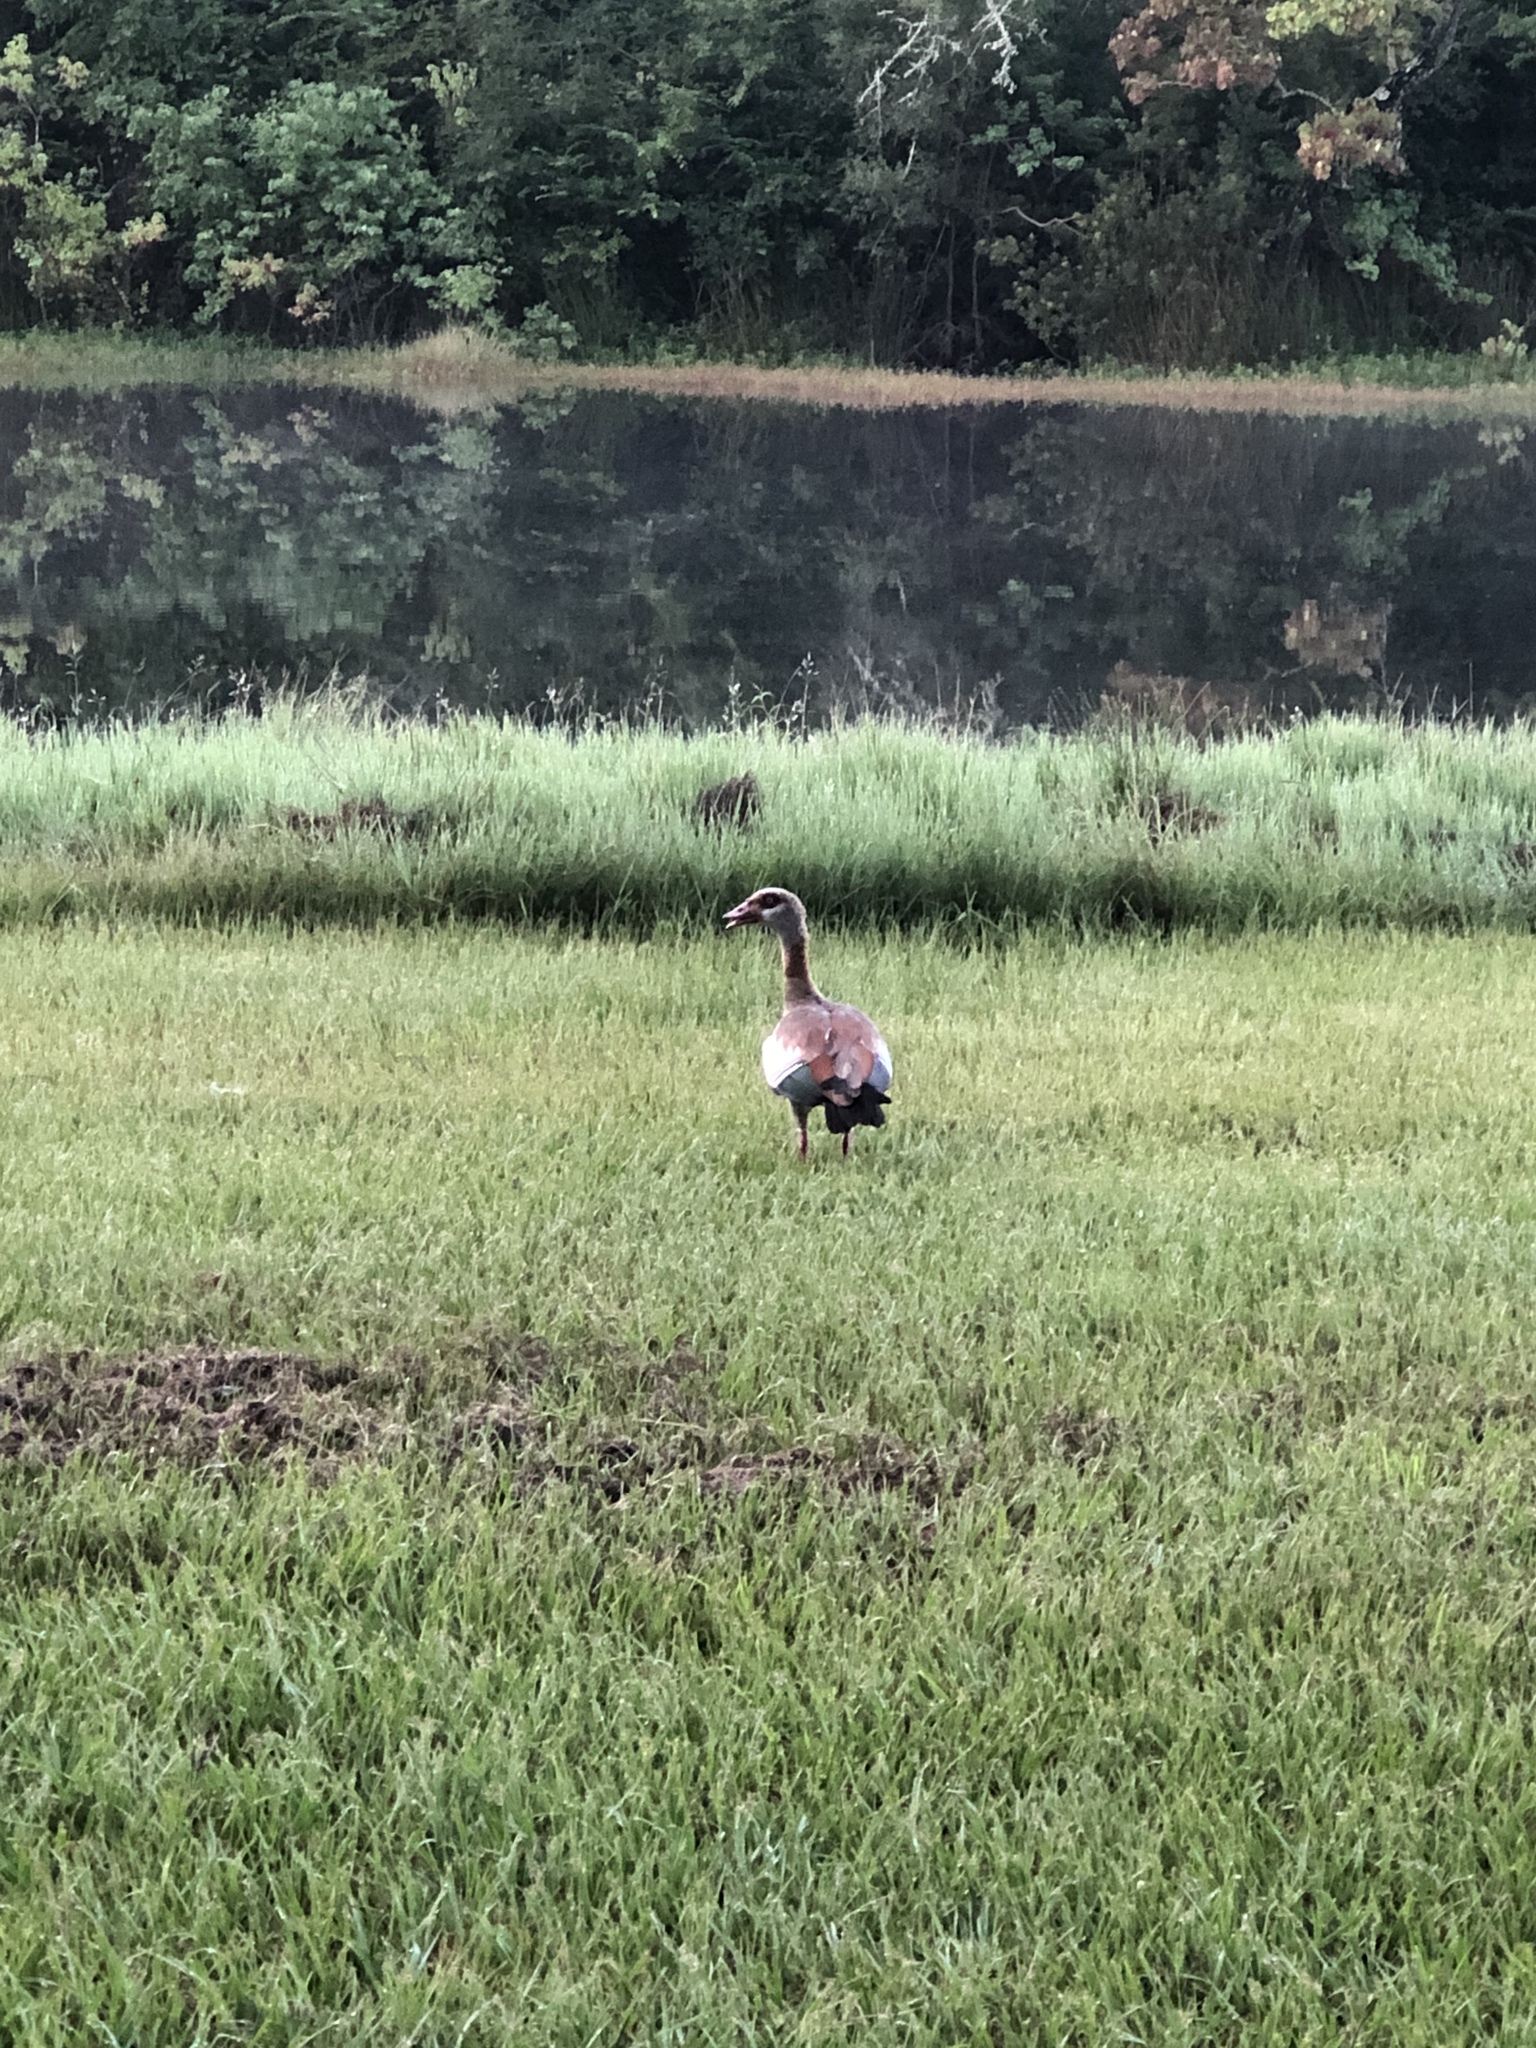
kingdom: Animalia
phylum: Chordata
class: Aves
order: Anseriformes
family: Anatidae
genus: Alopochen
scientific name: Alopochen aegyptiaca
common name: Egyptian goose
